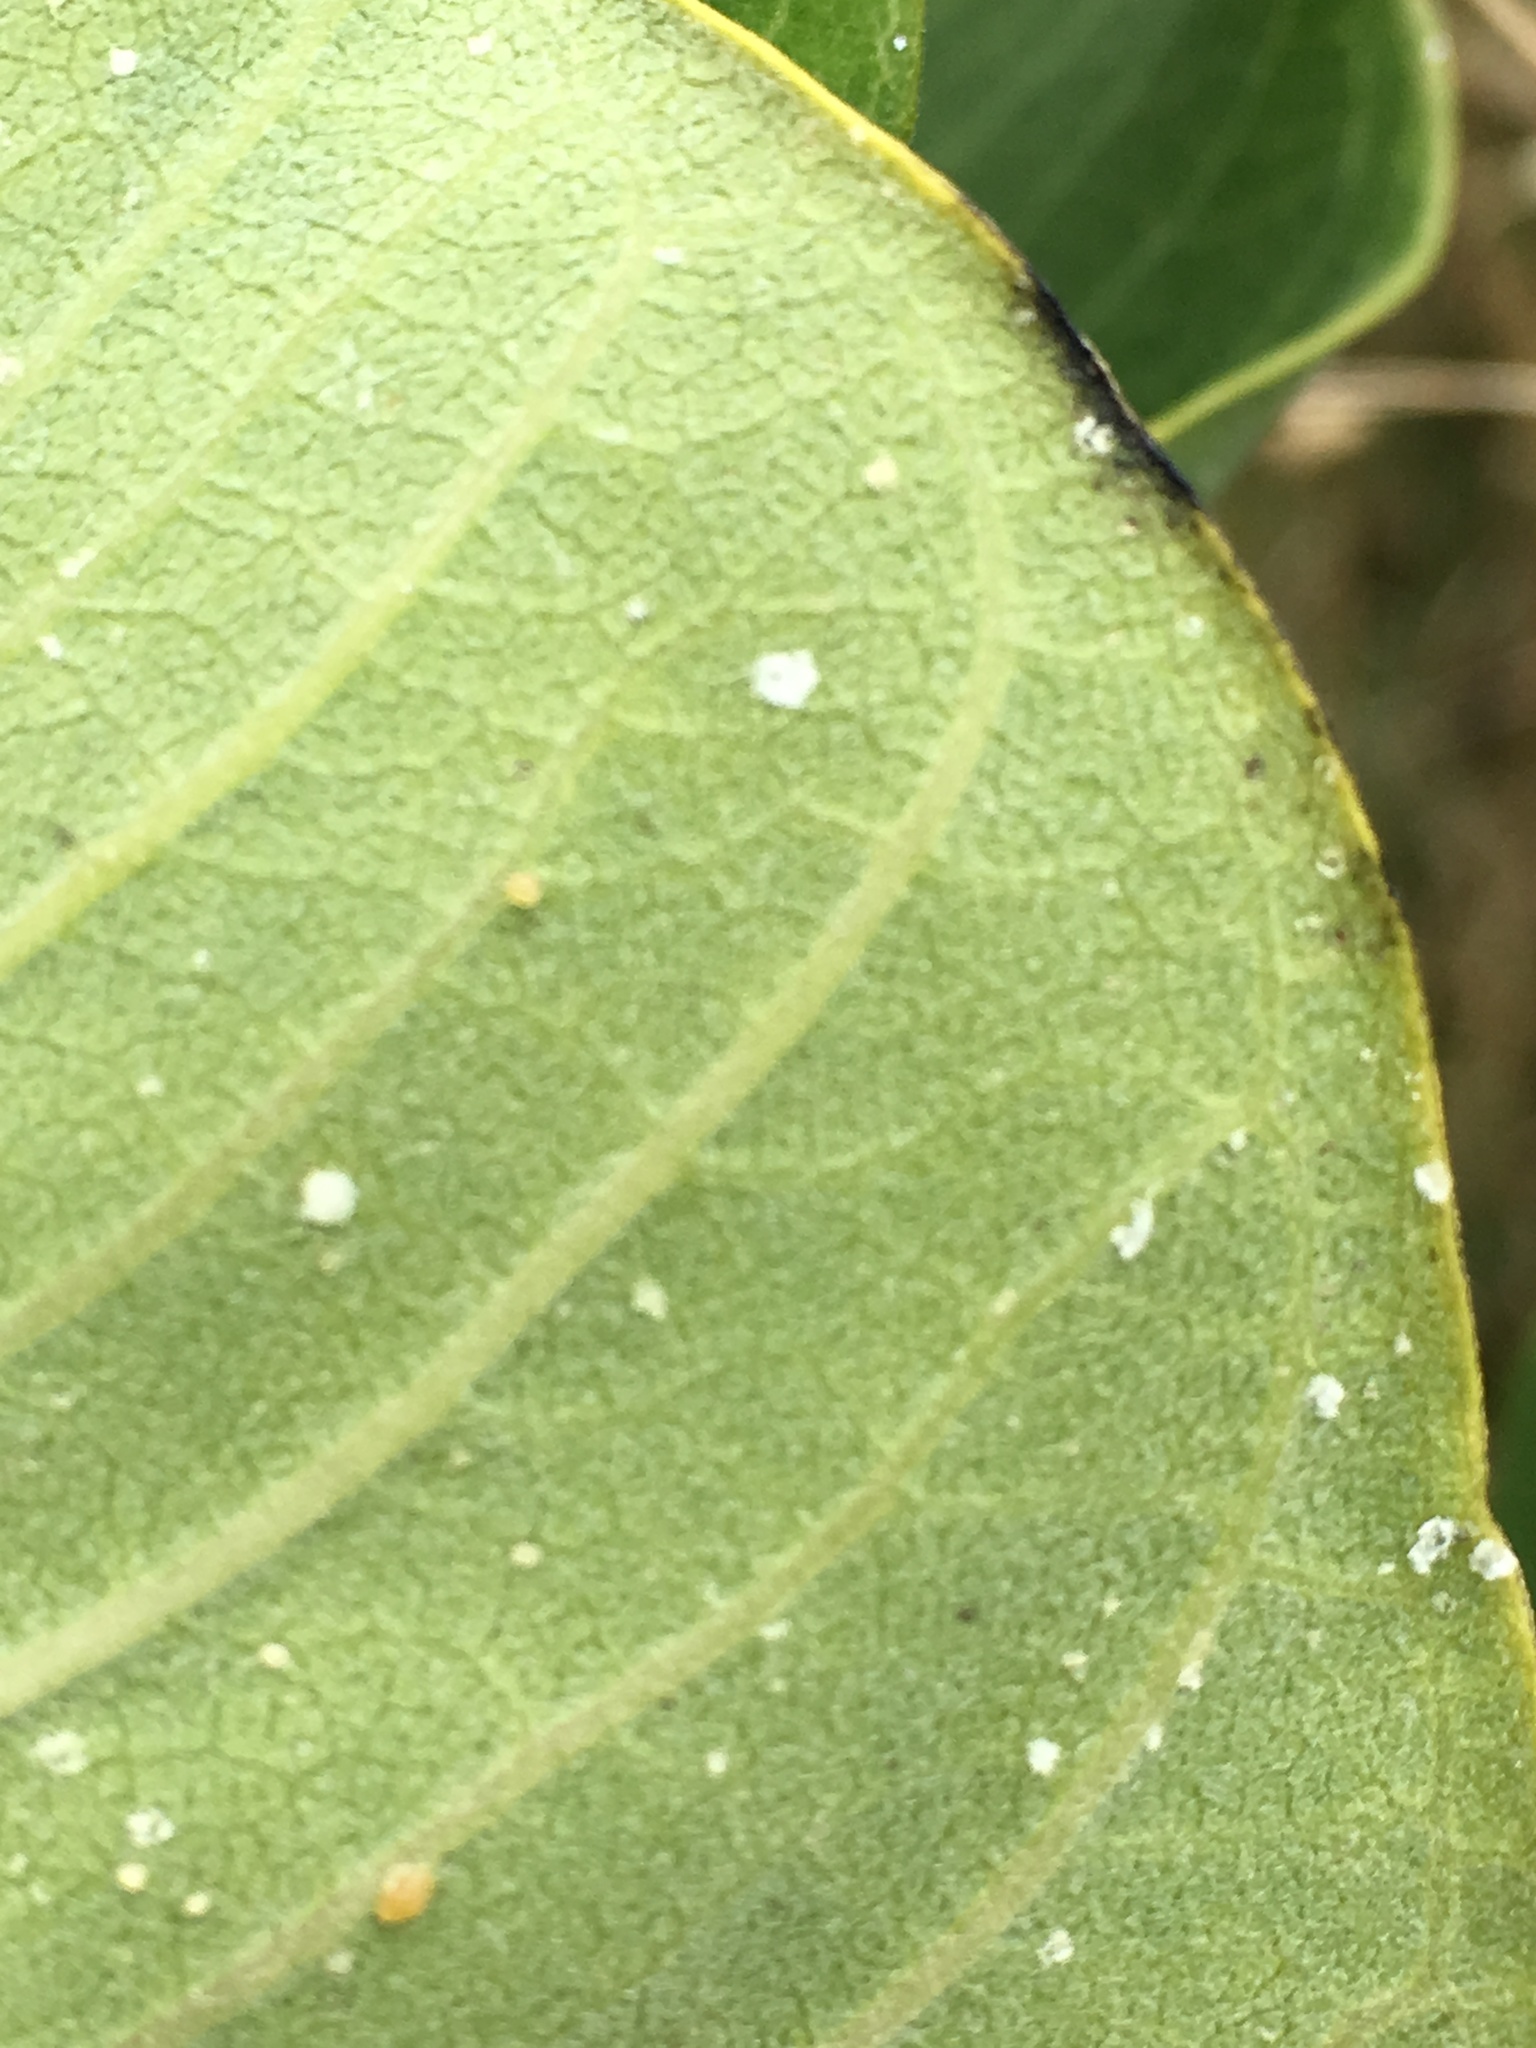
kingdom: Animalia
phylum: Arthropoda
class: Insecta
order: Lepidoptera
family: Nymphalidae
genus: Danaus
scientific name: Danaus plexippus
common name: Monarch
